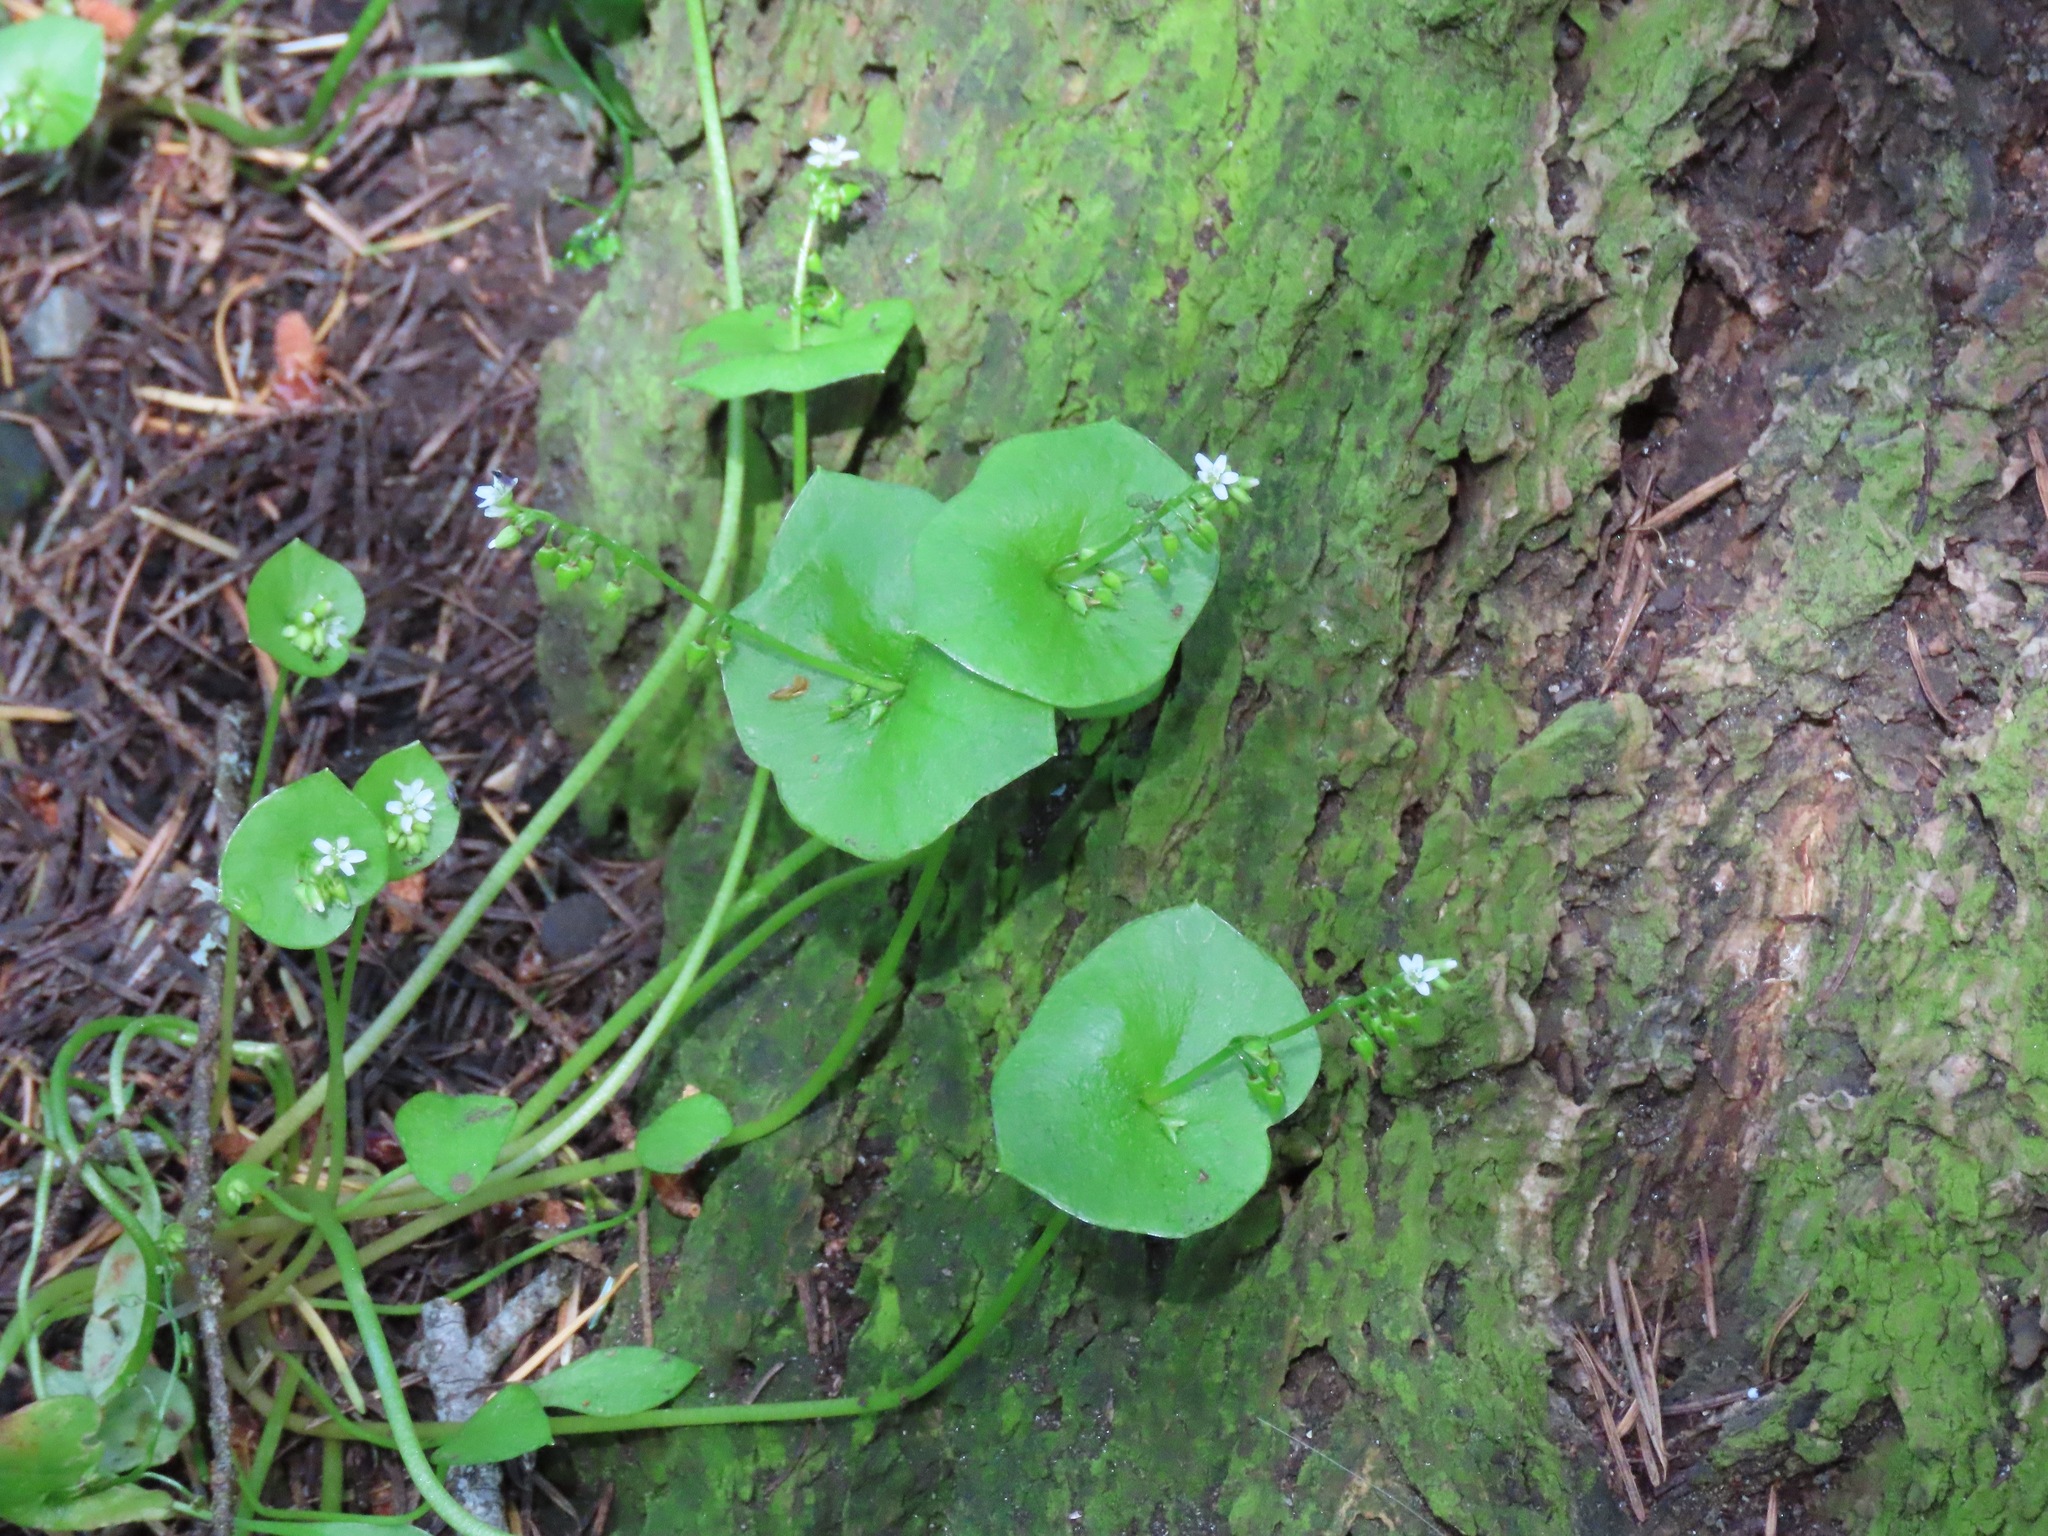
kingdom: Plantae
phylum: Tracheophyta
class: Magnoliopsida
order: Caryophyllales
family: Montiaceae
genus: Claytonia
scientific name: Claytonia perfoliata
